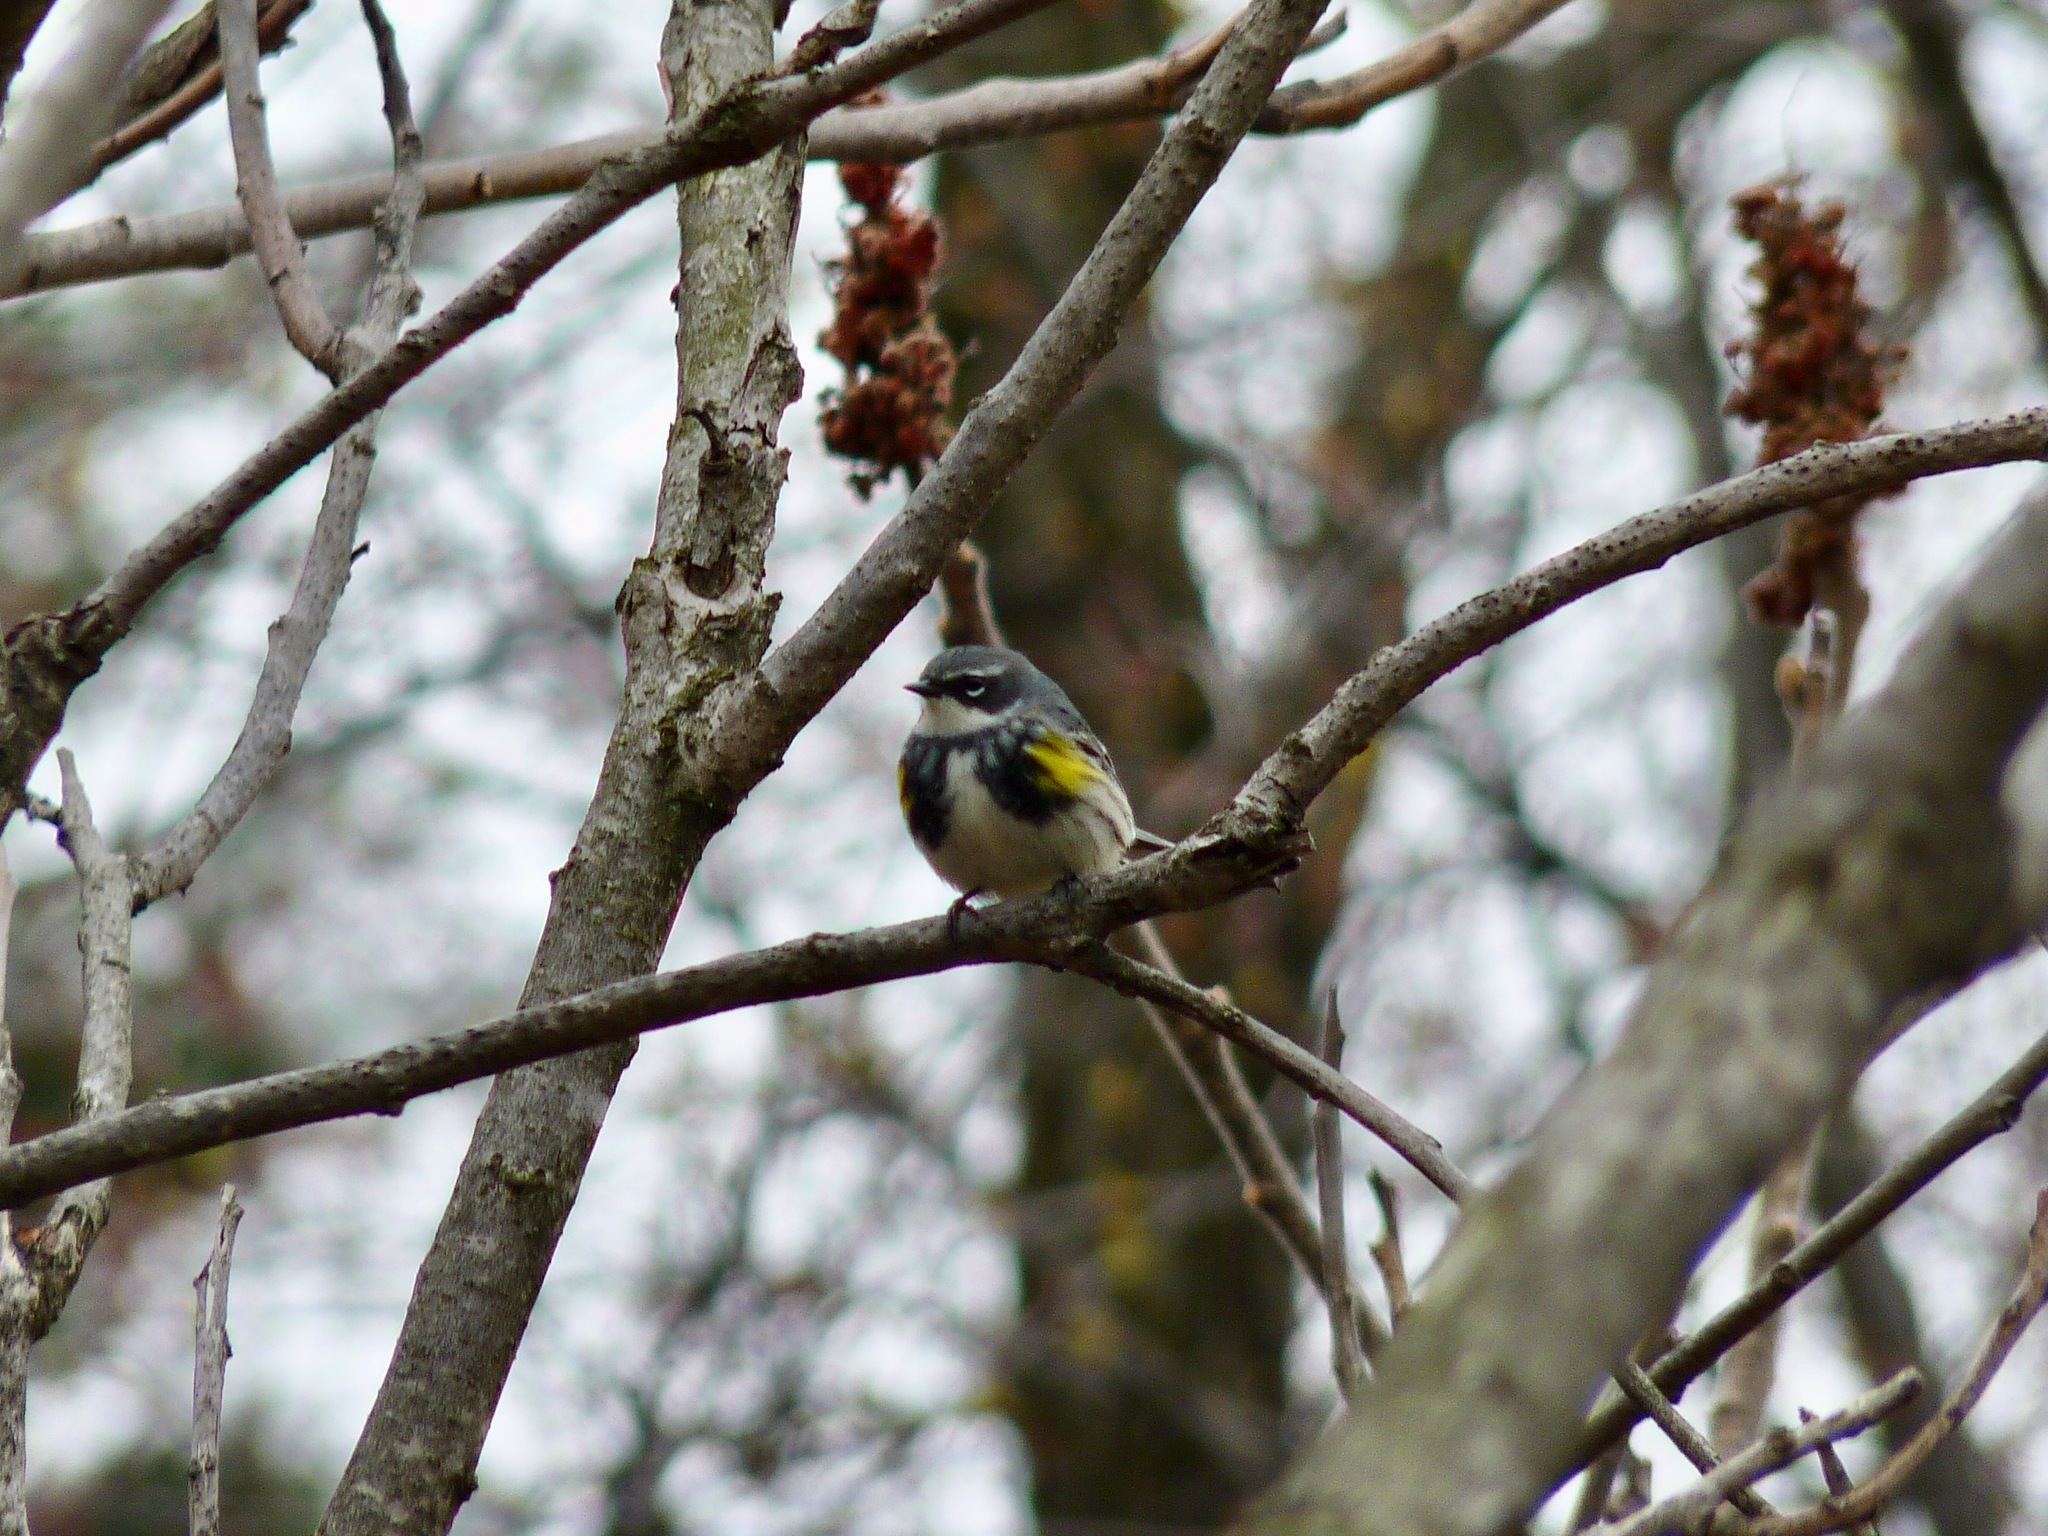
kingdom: Animalia
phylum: Chordata
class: Aves
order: Passeriformes
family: Parulidae
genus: Setophaga
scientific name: Setophaga coronata
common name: Myrtle warbler
